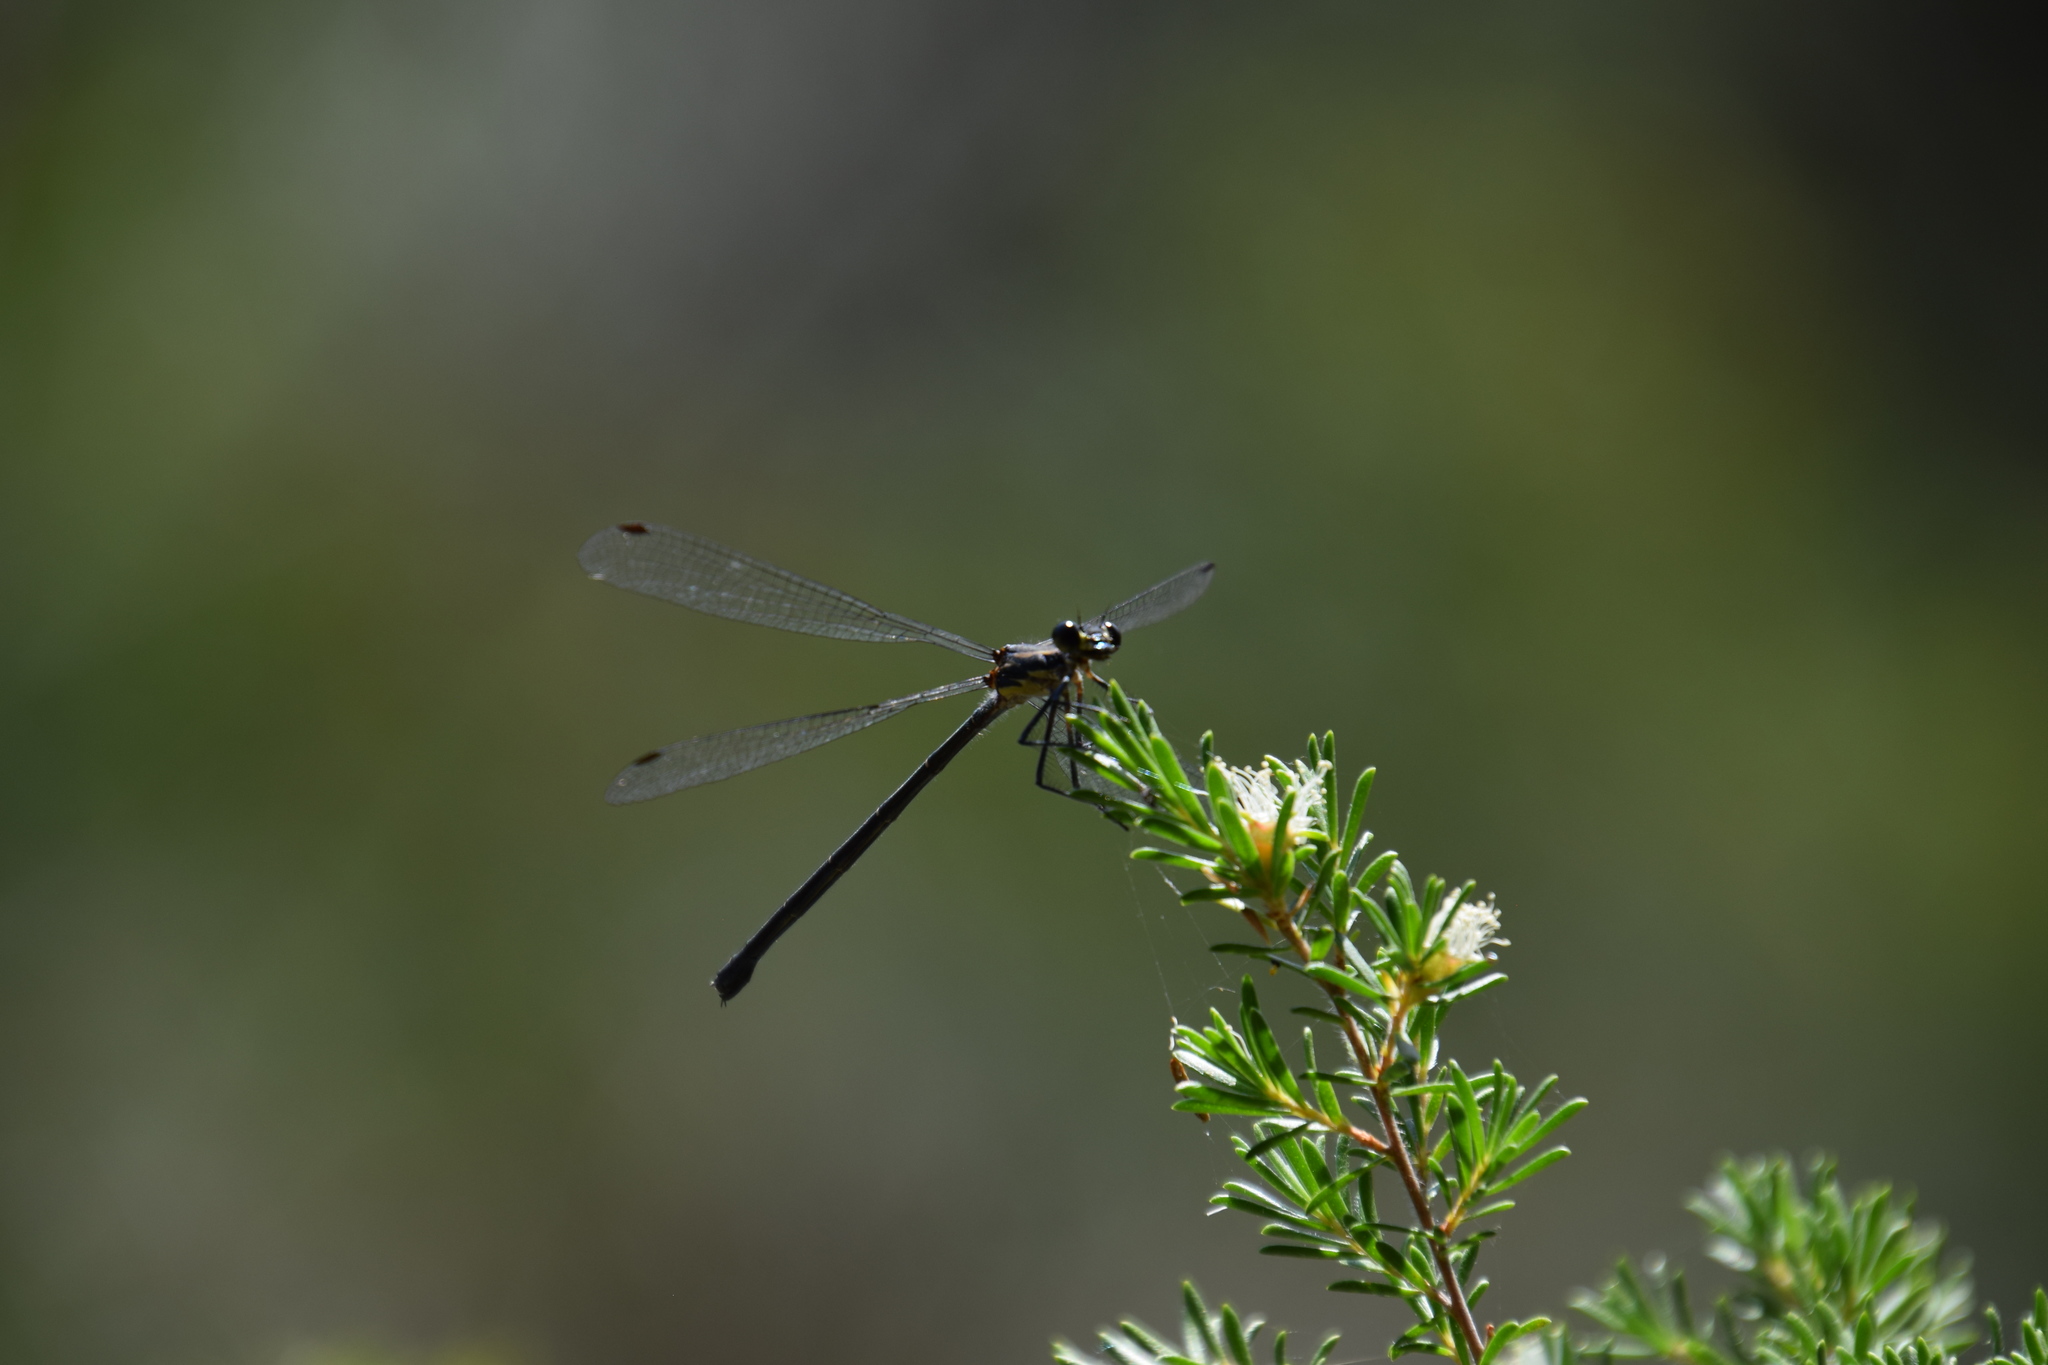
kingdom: Animalia
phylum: Arthropoda
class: Insecta
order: Odonata
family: Argiolestidae
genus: Austroargiolestes
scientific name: Austroargiolestes icteromelas
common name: Common flatwing
